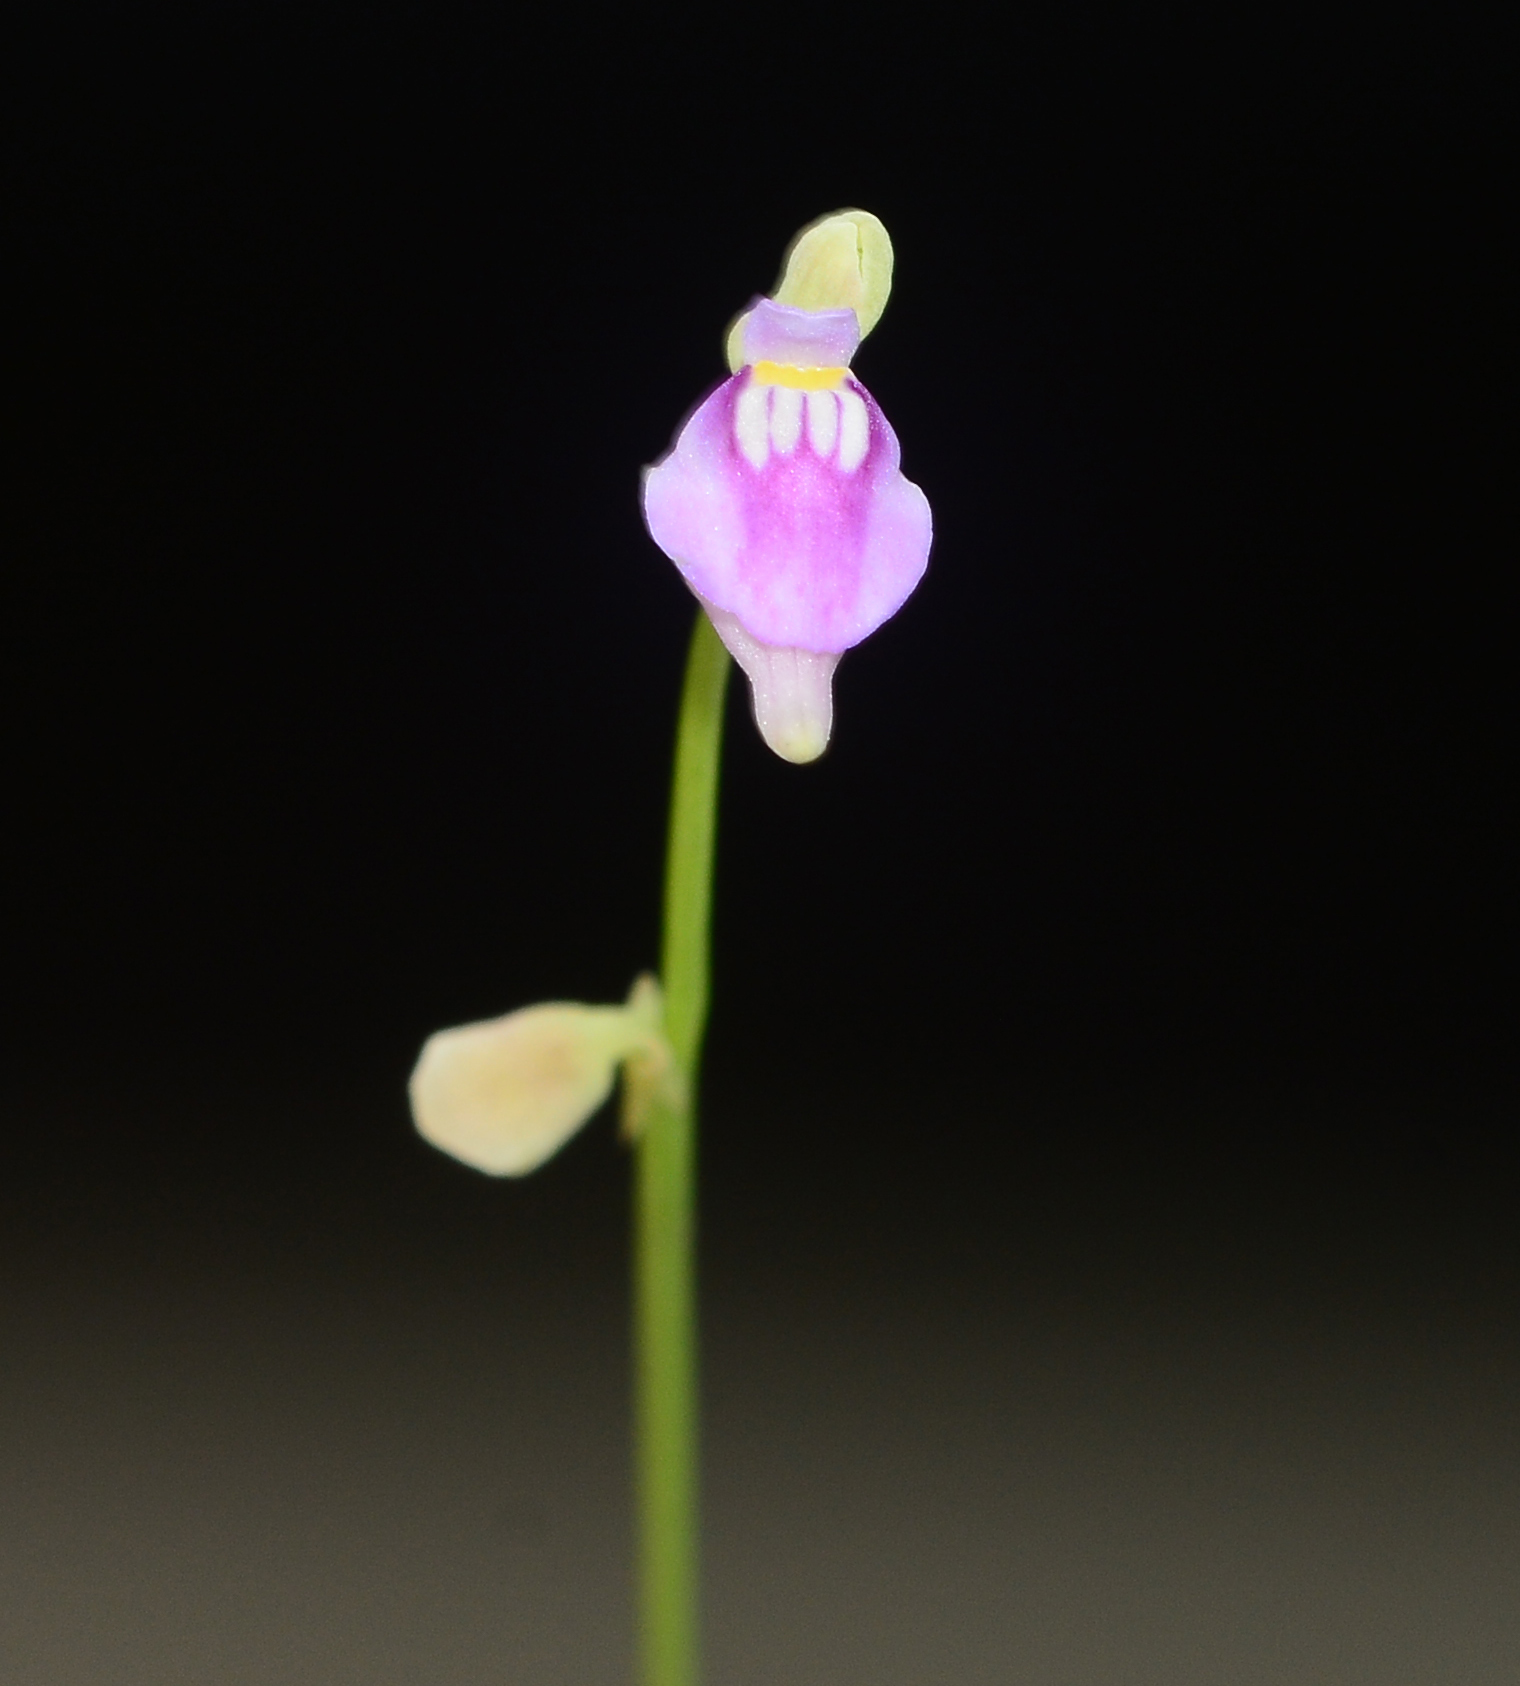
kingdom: Plantae
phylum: Tracheophyta
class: Magnoliopsida
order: Lamiales
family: Lentibulariaceae
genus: Utricularia
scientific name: Utricularia caerulea
